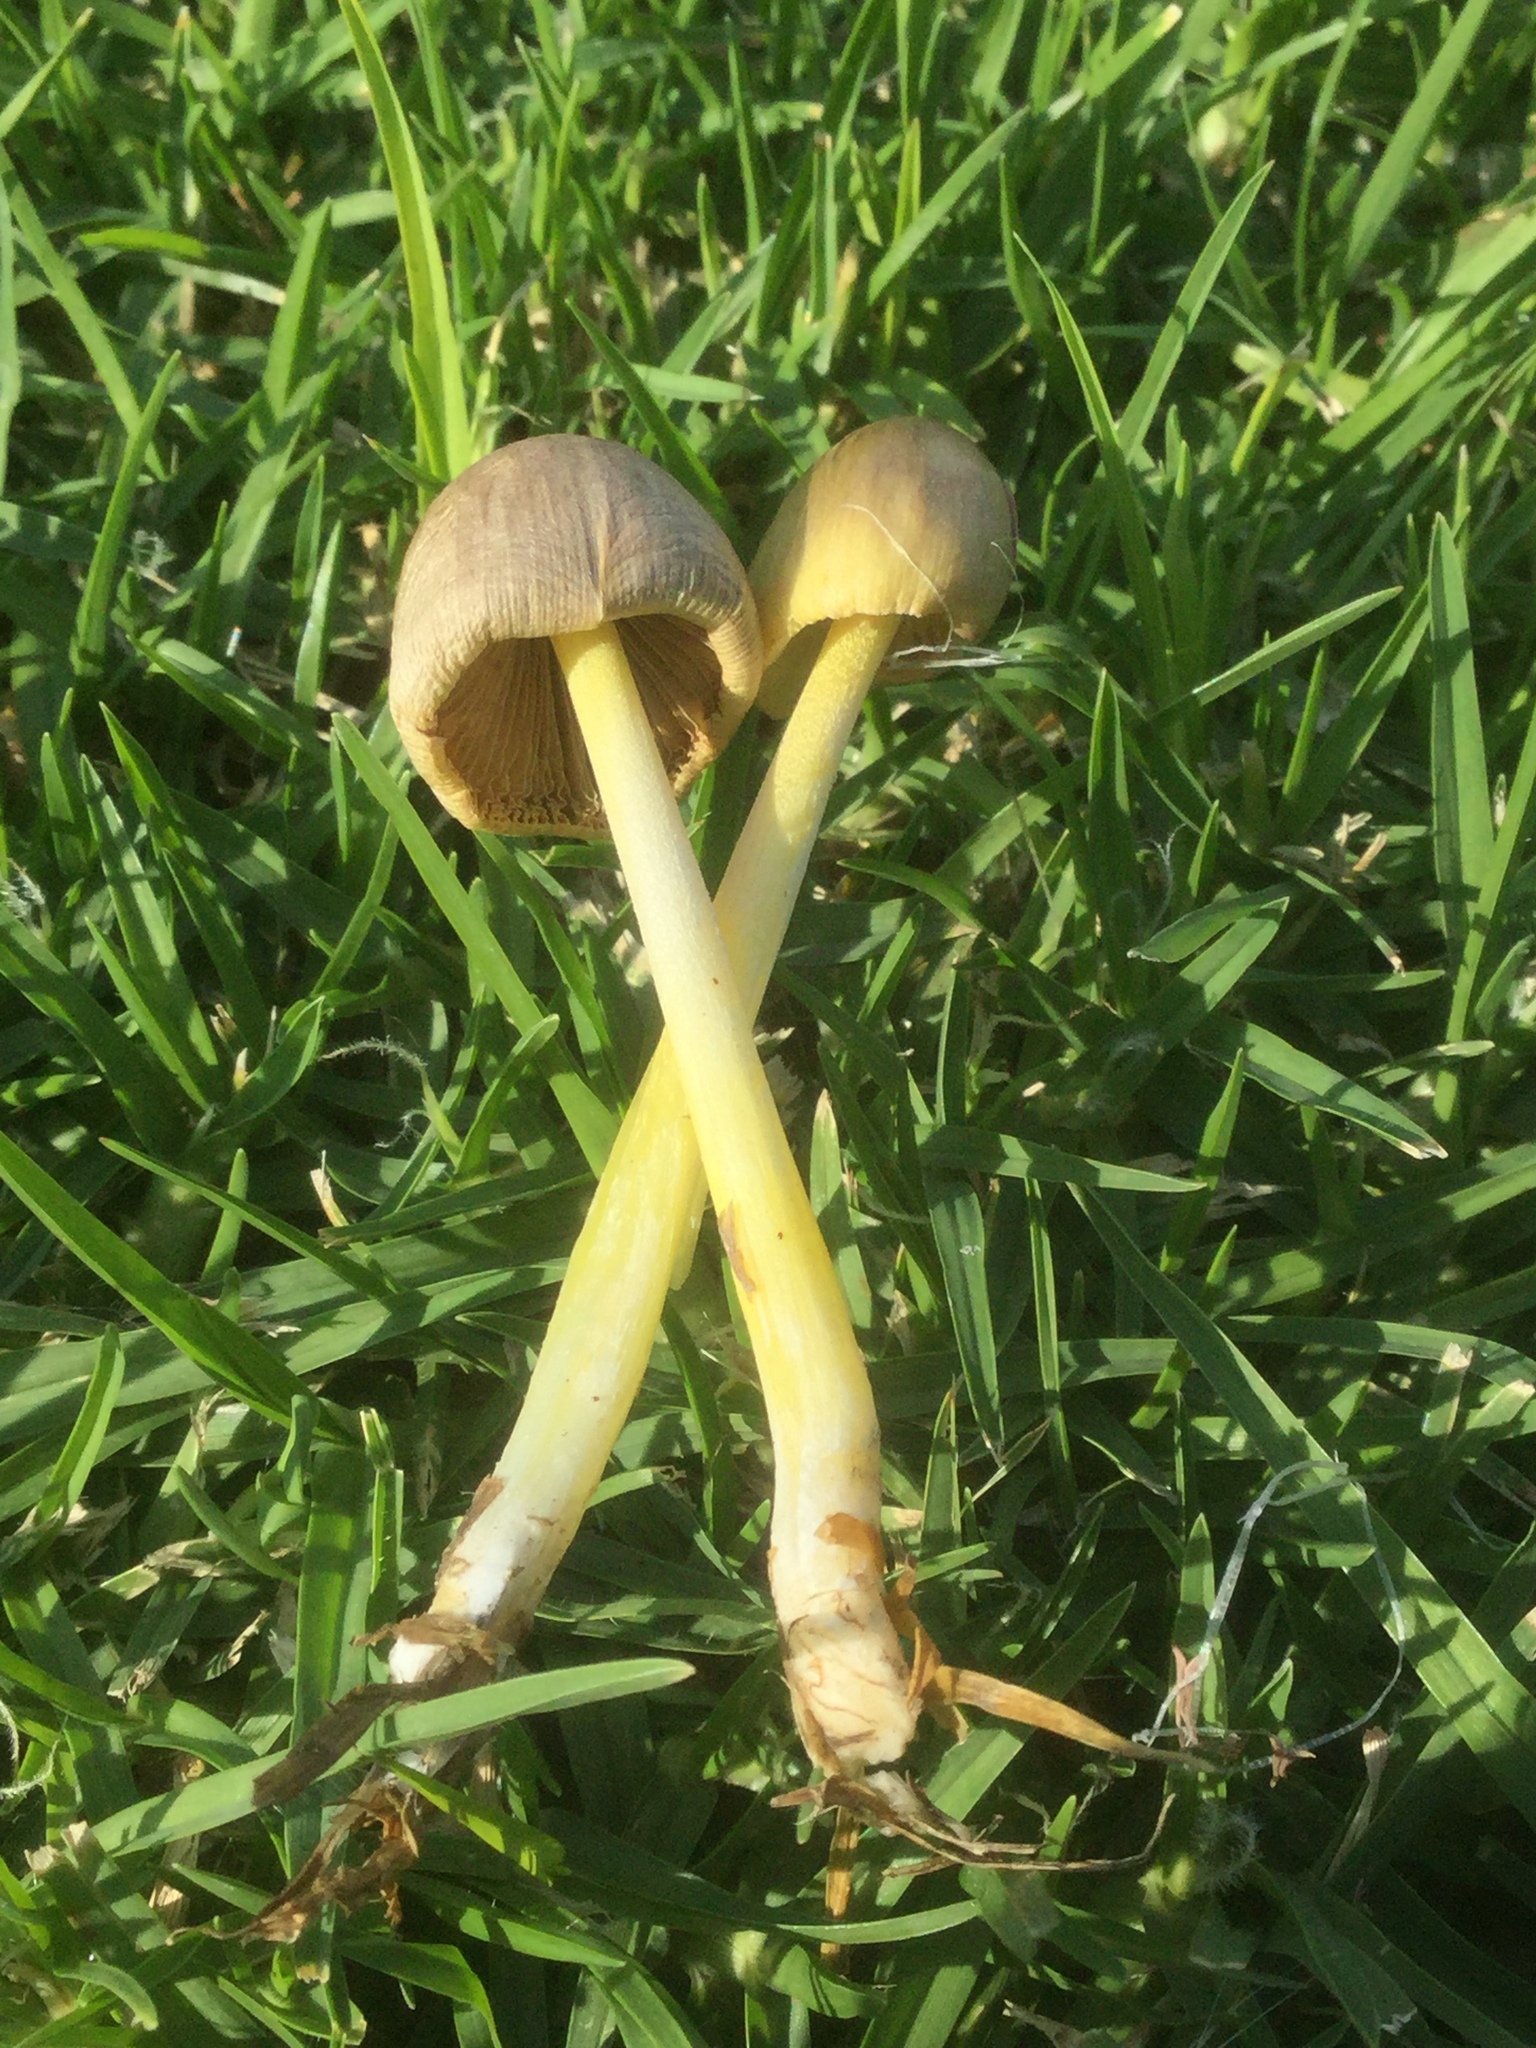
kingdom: Fungi
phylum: Basidiomycota
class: Agaricomycetes
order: Agaricales
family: Bolbitiaceae
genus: Bolbitius
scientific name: Bolbitius titubans
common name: Yellow fieldcap
